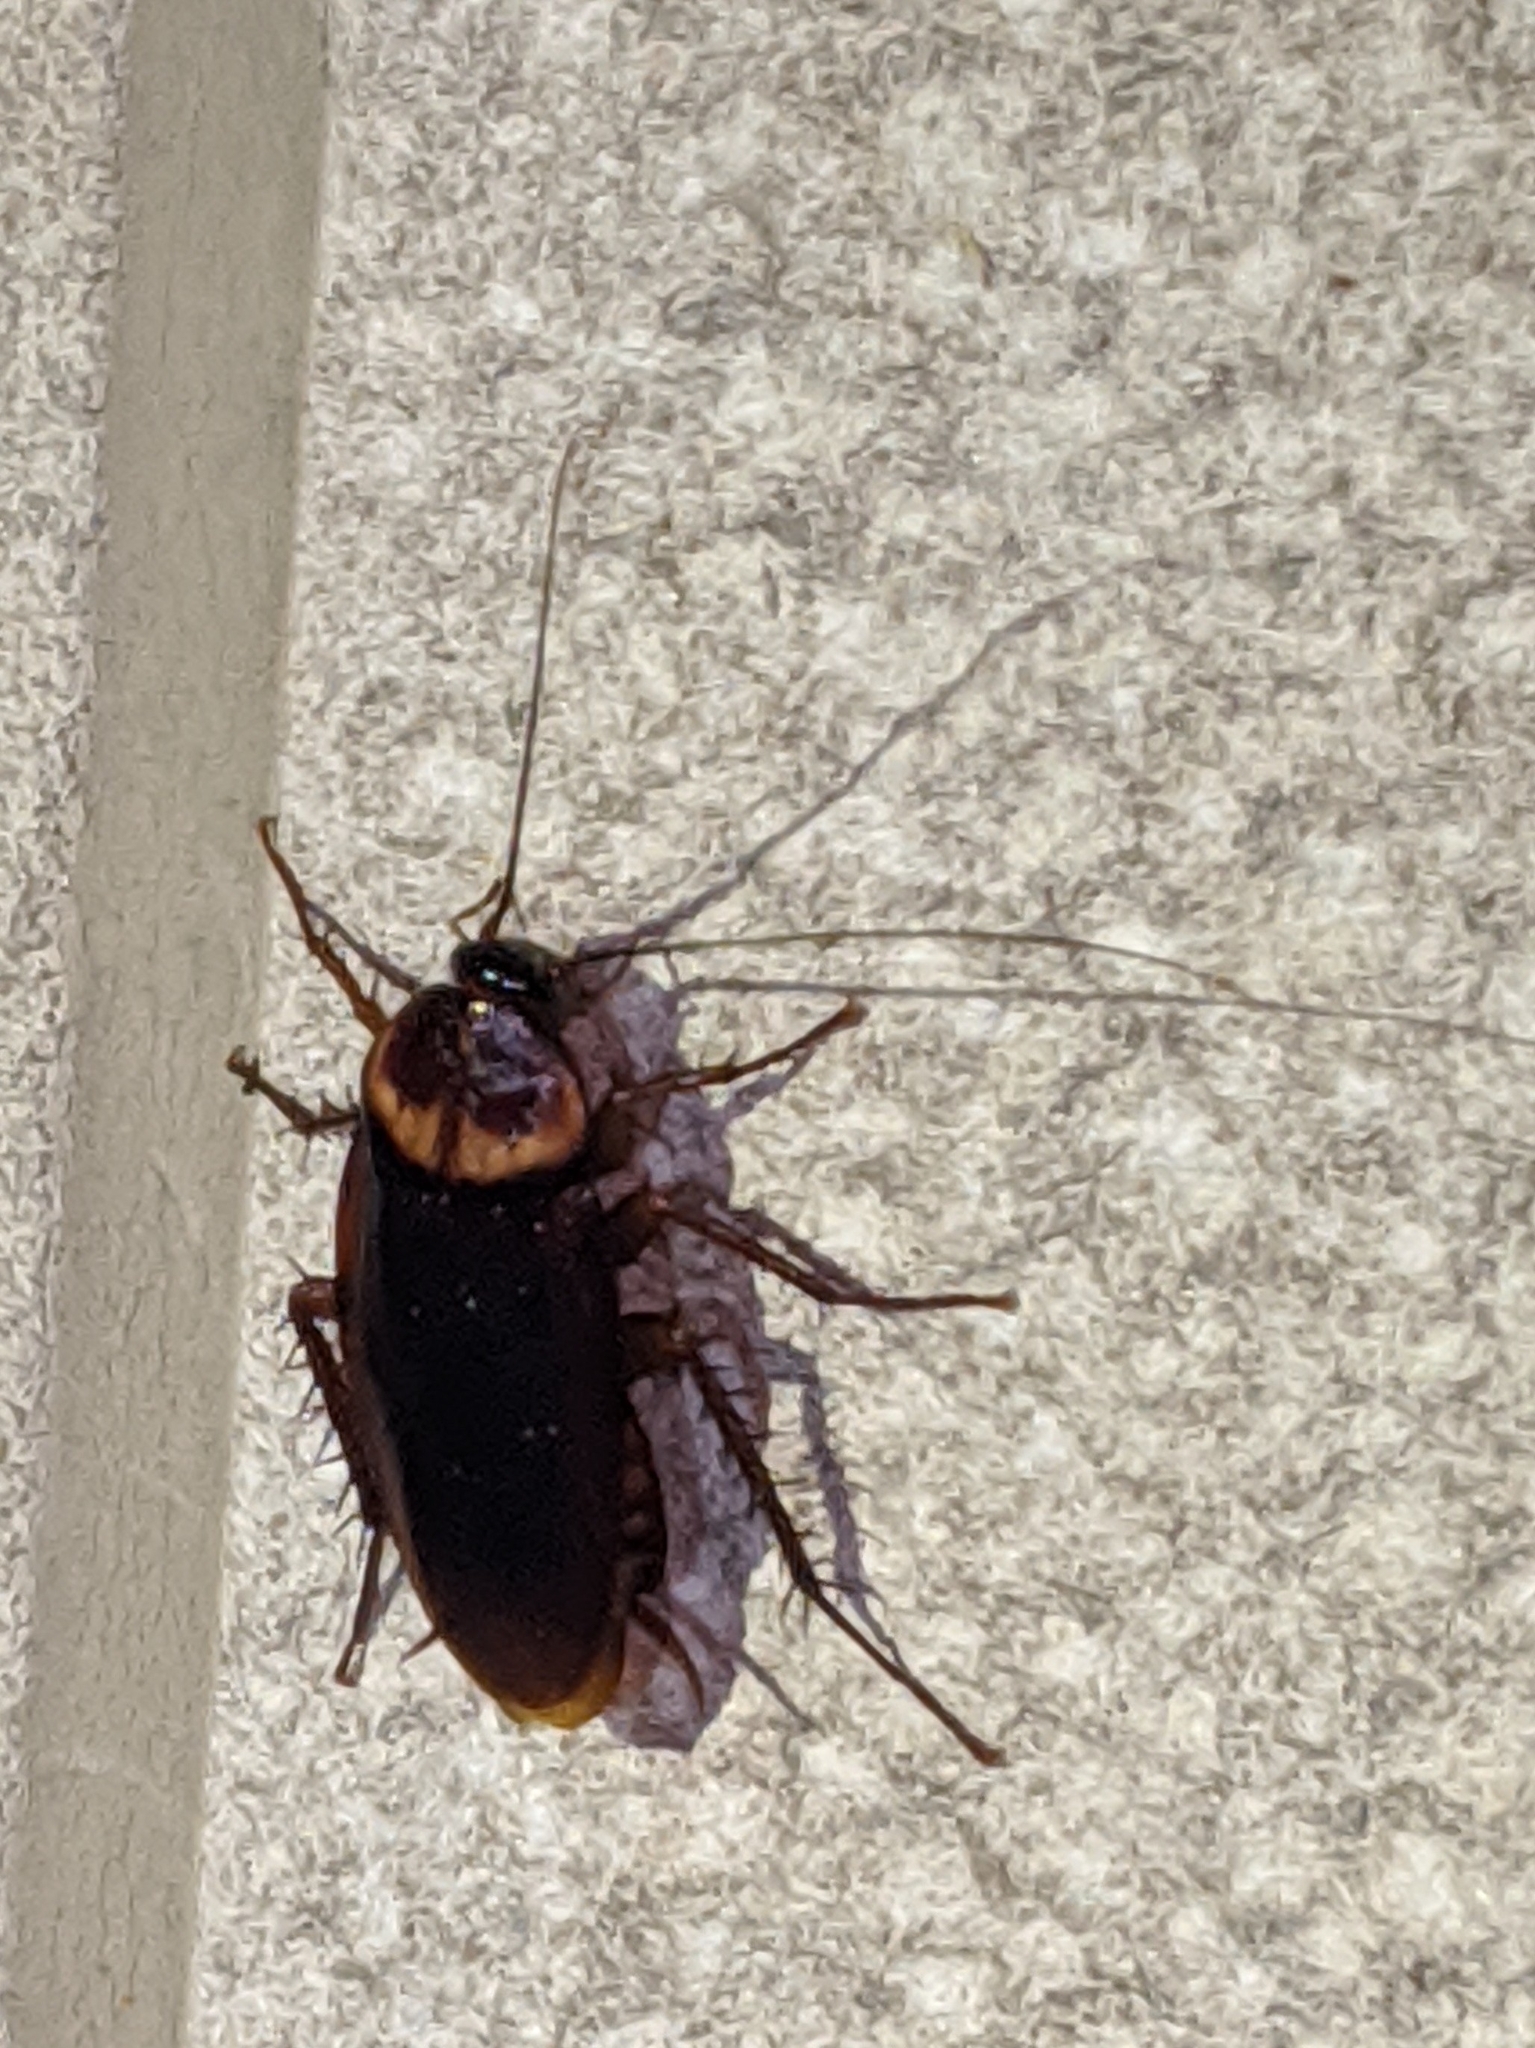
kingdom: Animalia
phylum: Arthropoda
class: Insecta
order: Blattodea
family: Blattidae
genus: Periplaneta
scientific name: Periplaneta americana
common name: American cockroach
